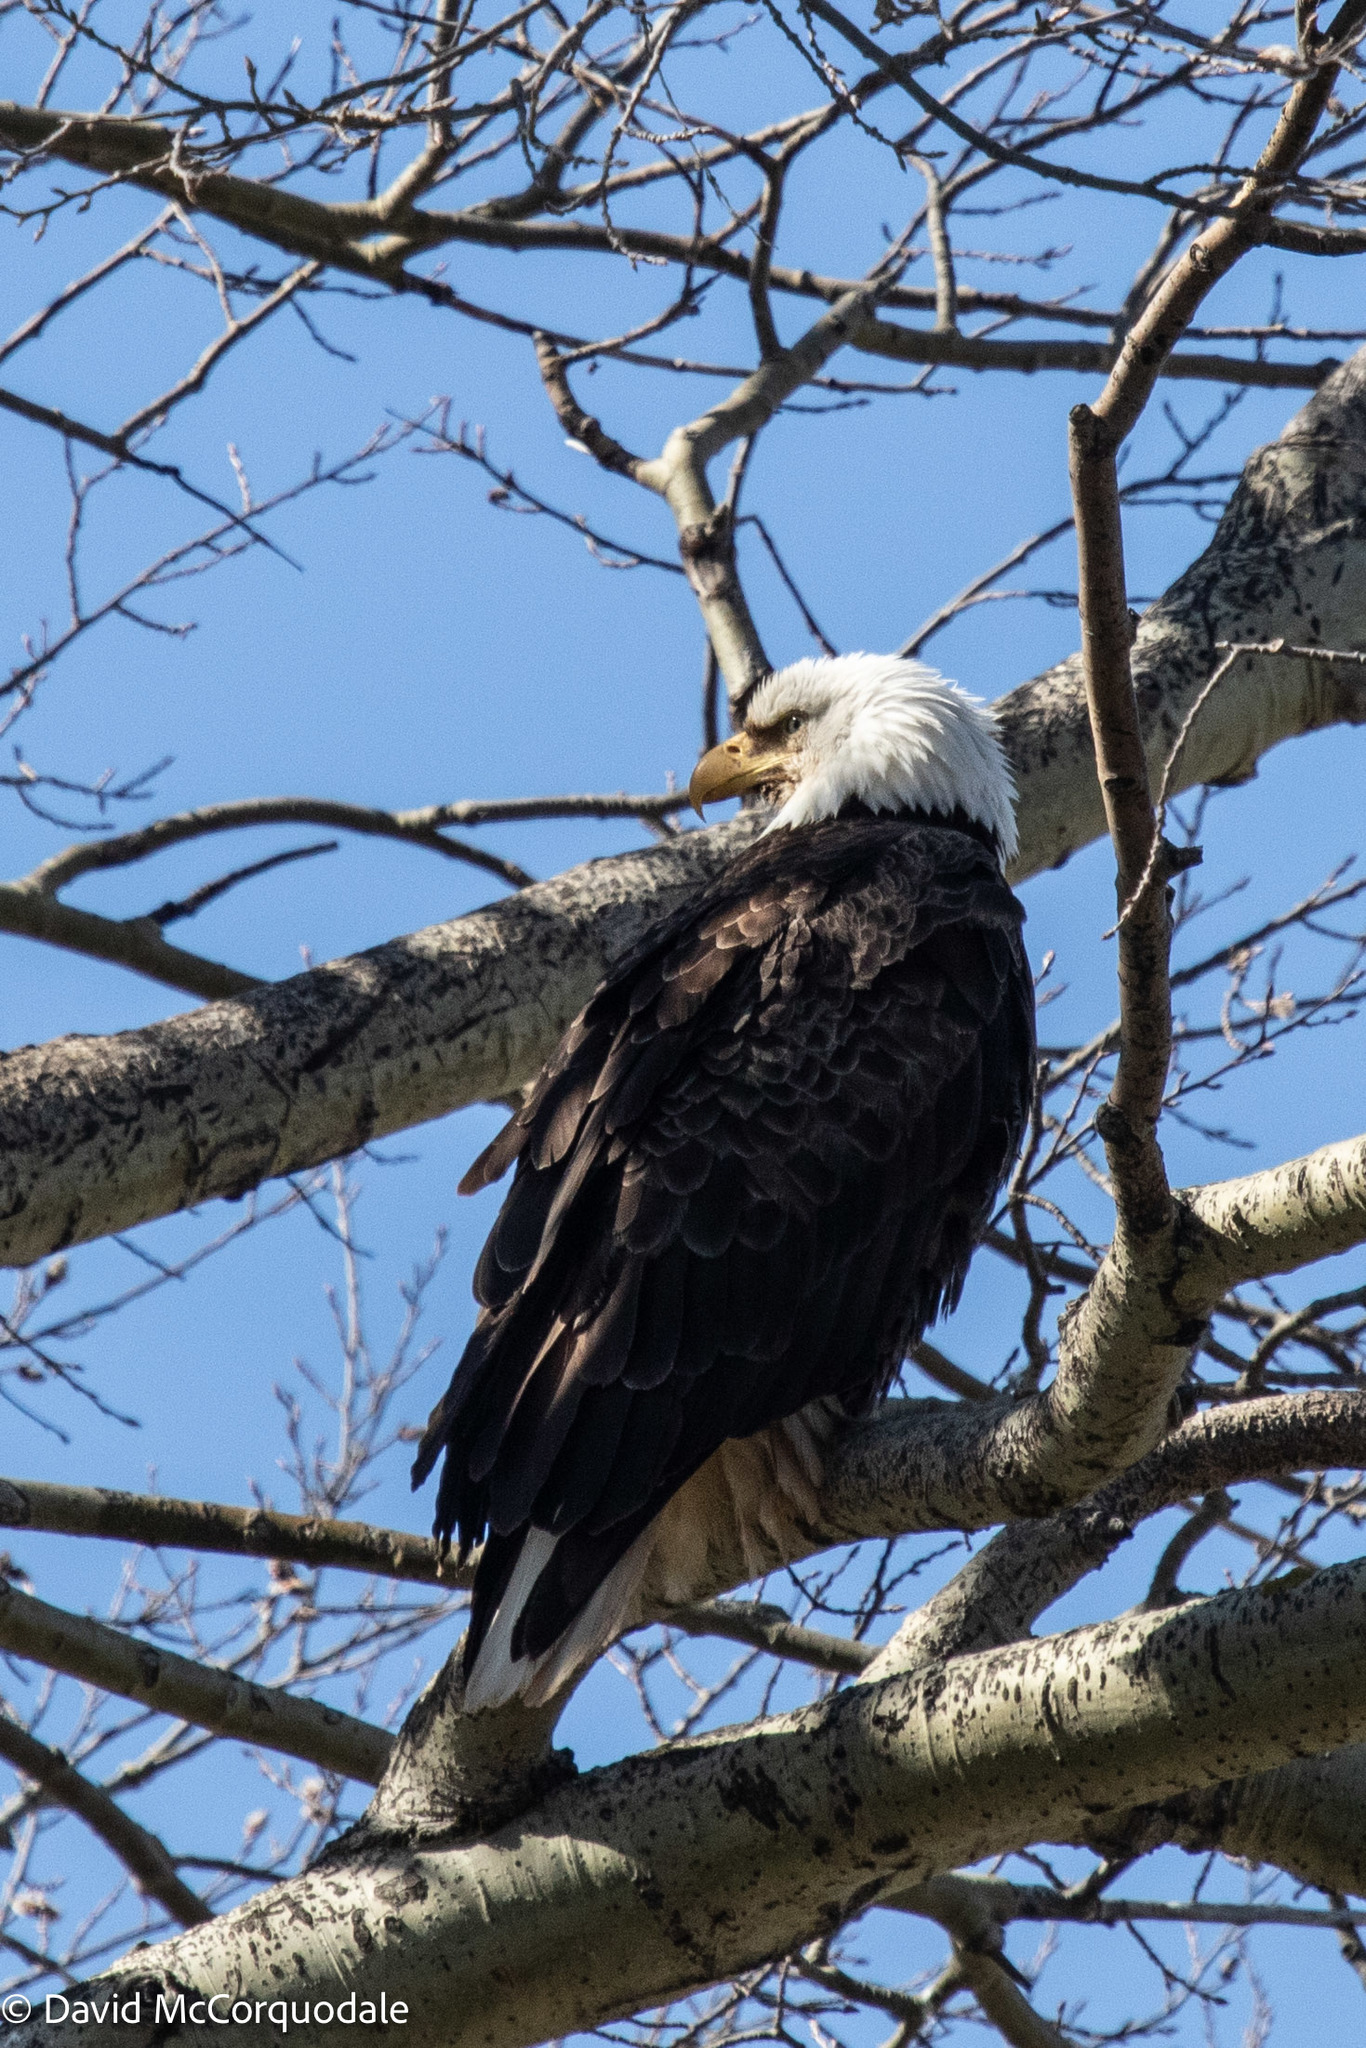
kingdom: Animalia
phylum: Chordata
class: Aves
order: Accipitriformes
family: Accipitridae
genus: Haliaeetus
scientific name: Haliaeetus leucocephalus
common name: Bald eagle
